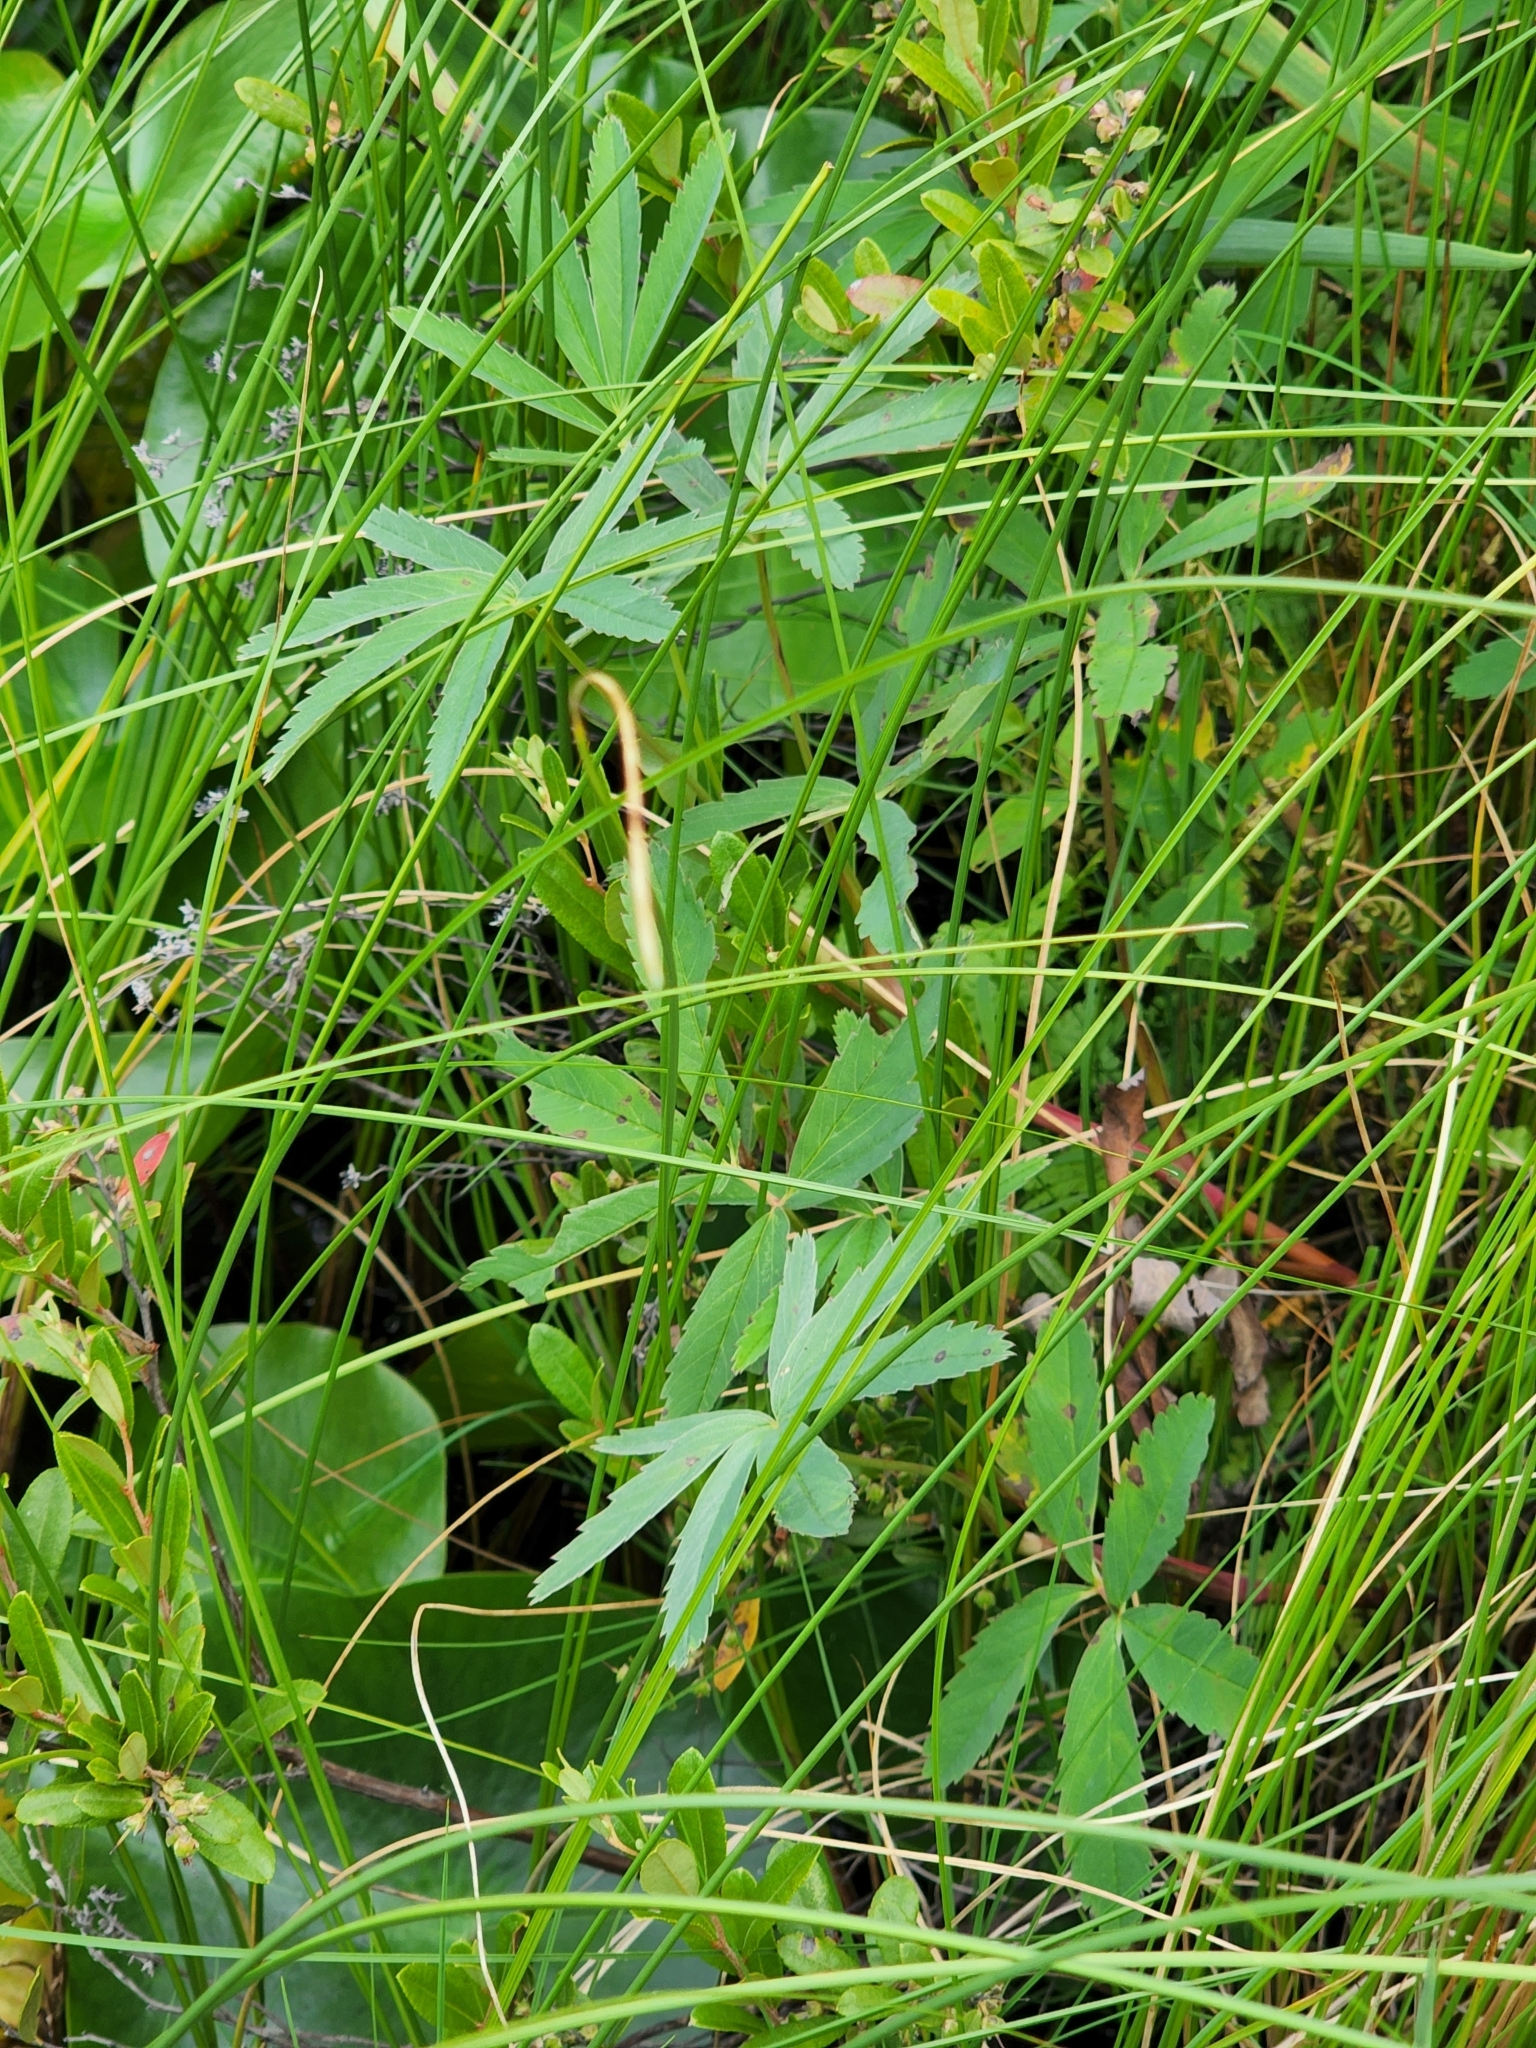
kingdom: Plantae
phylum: Tracheophyta
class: Magnoliopsida
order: Rosales
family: Rosaceae
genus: Comarum
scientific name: Comarum palustre
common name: Marsh cinquefoil
